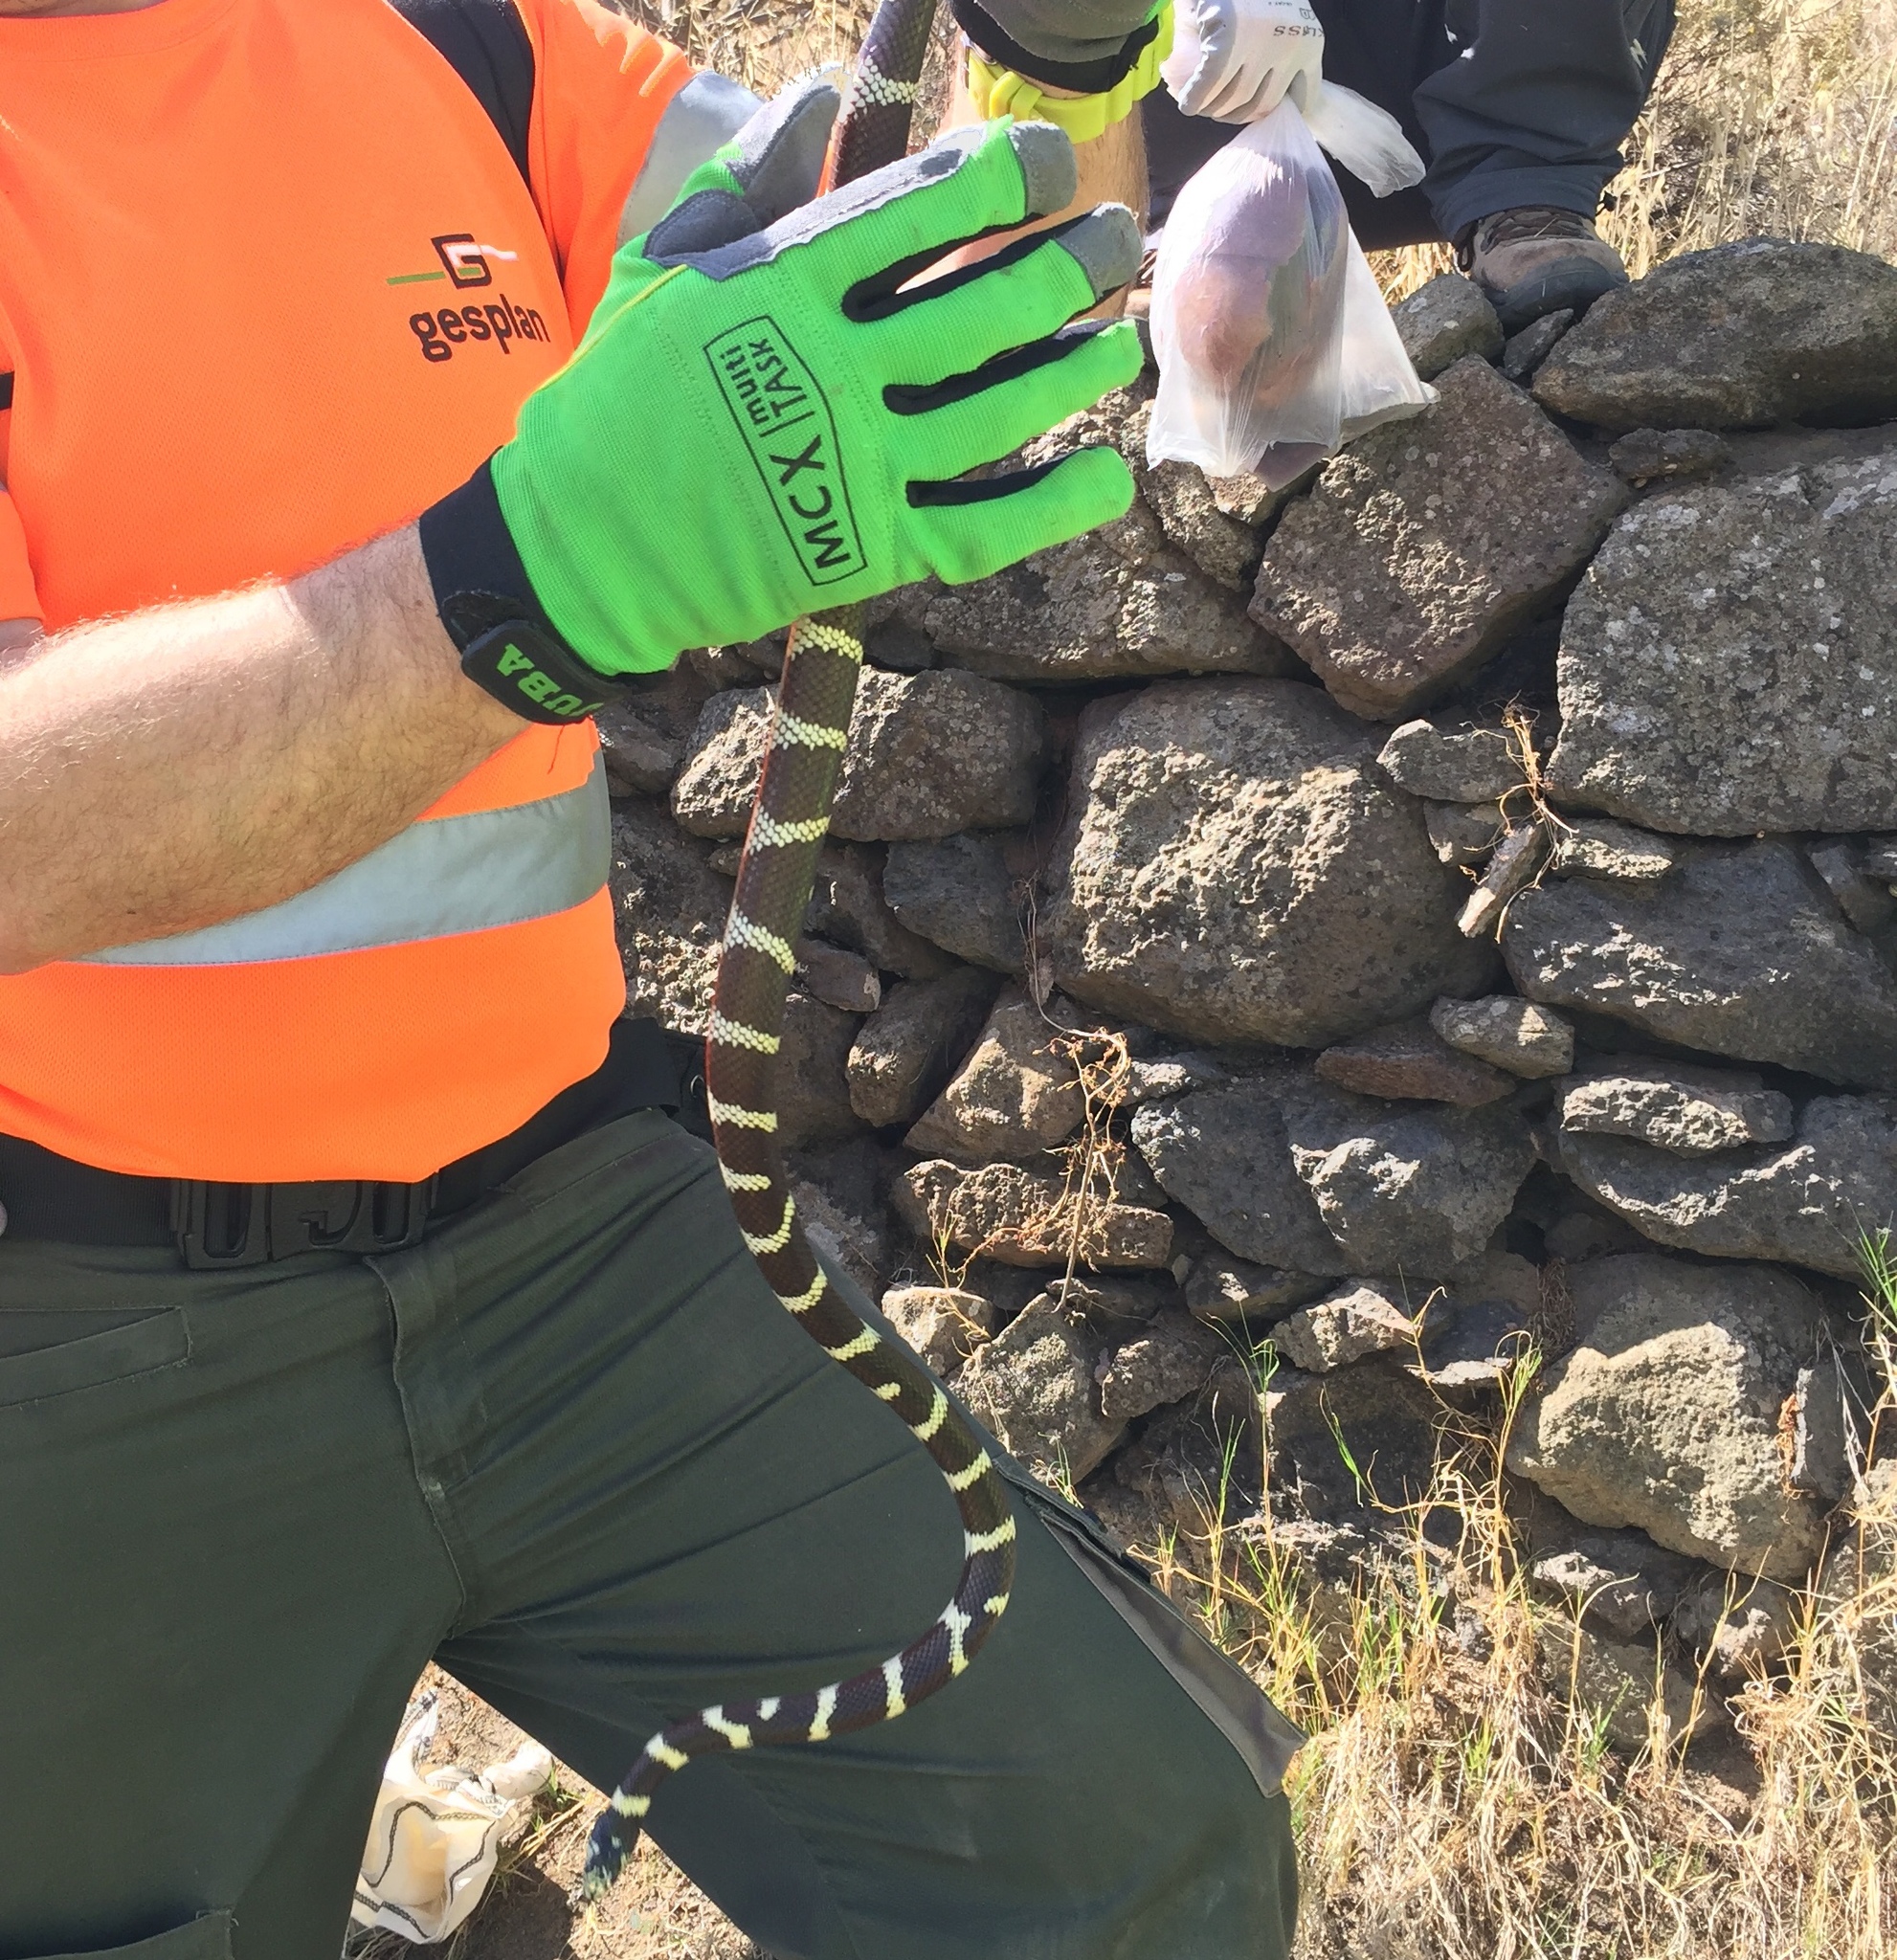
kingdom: Animalia
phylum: Chordata
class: Squamata
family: Colubridae
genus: Lampropeltis
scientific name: Lampropeltis californiae
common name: California kingsnake
